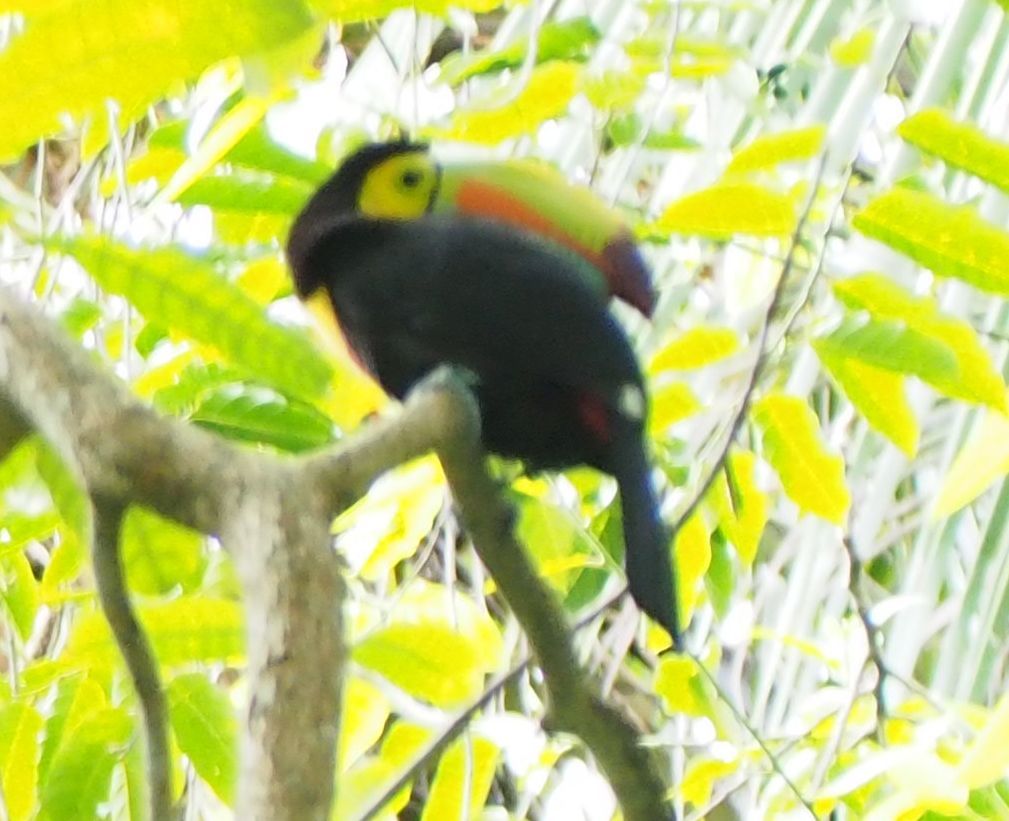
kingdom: Animalia
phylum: Chordata
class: Aves
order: Piciformes
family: Ramphastidae
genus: Ramphastos
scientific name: Ramphastos sulfuratus
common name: Keel-billed toucan
